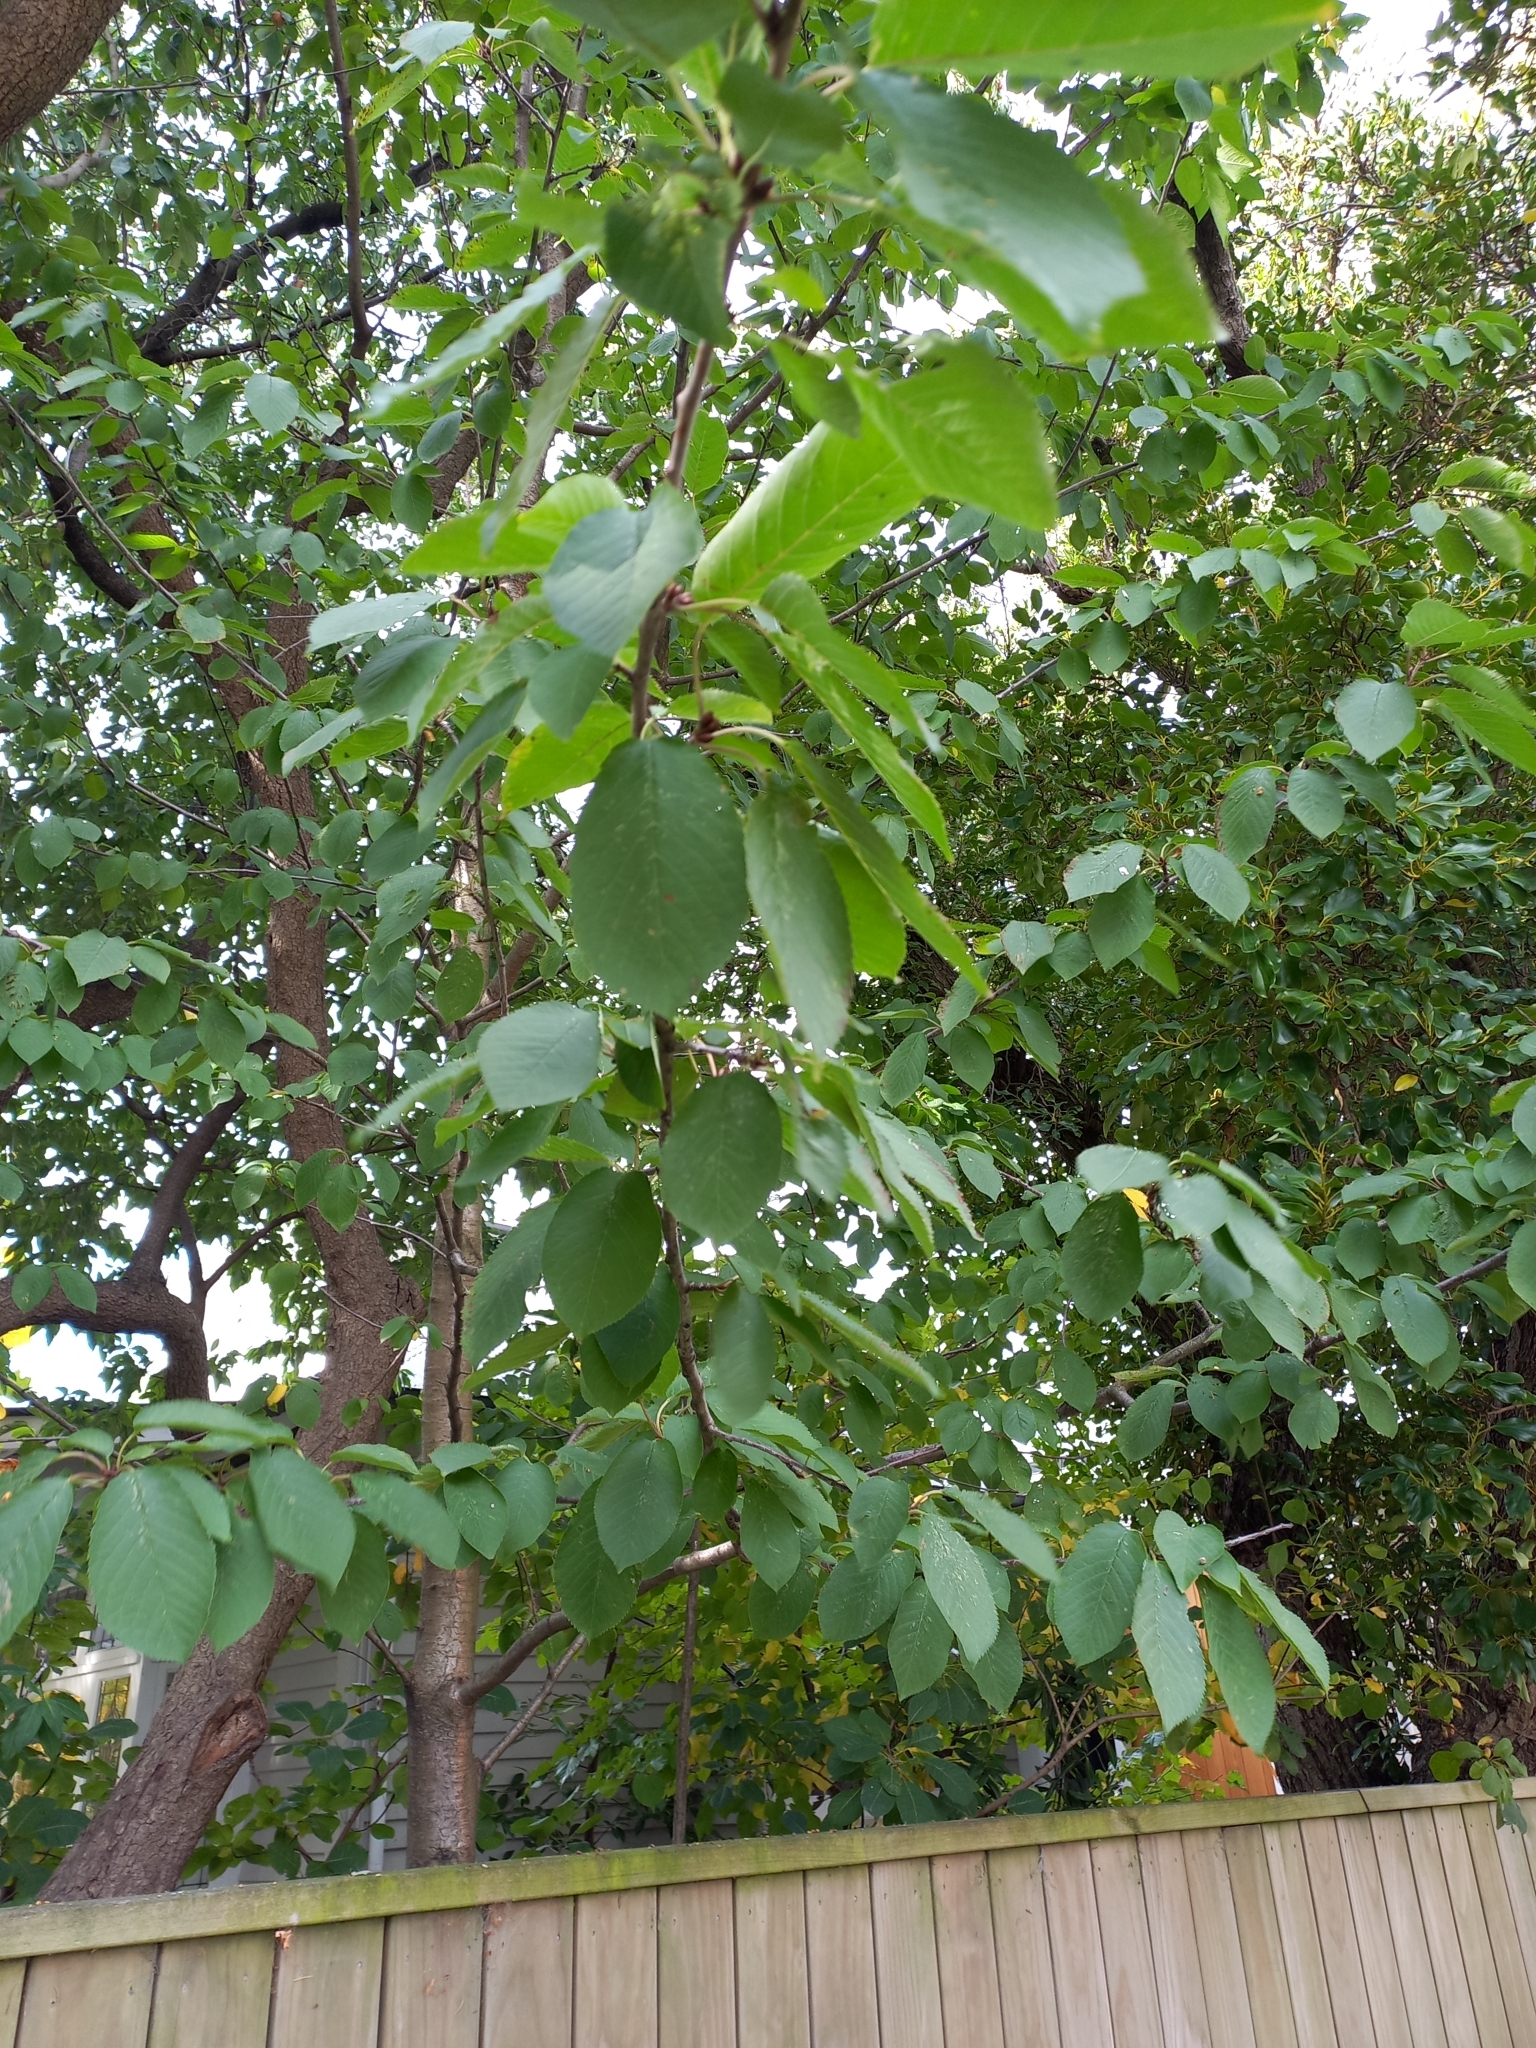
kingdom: Plantae
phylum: Tracheophyta
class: Magnoliopsida
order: Rosales
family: Rosaceae
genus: Prunus
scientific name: Prunus avium
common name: Sweet cherry
